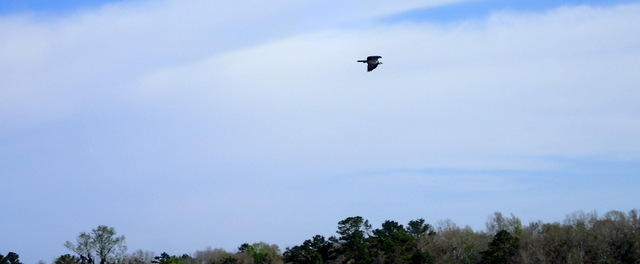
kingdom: Animalia
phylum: Chordata
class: Aves
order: Accipitriformes
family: Pandionidae
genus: Pandion
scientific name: Pandion haliaetus
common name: Osprey
